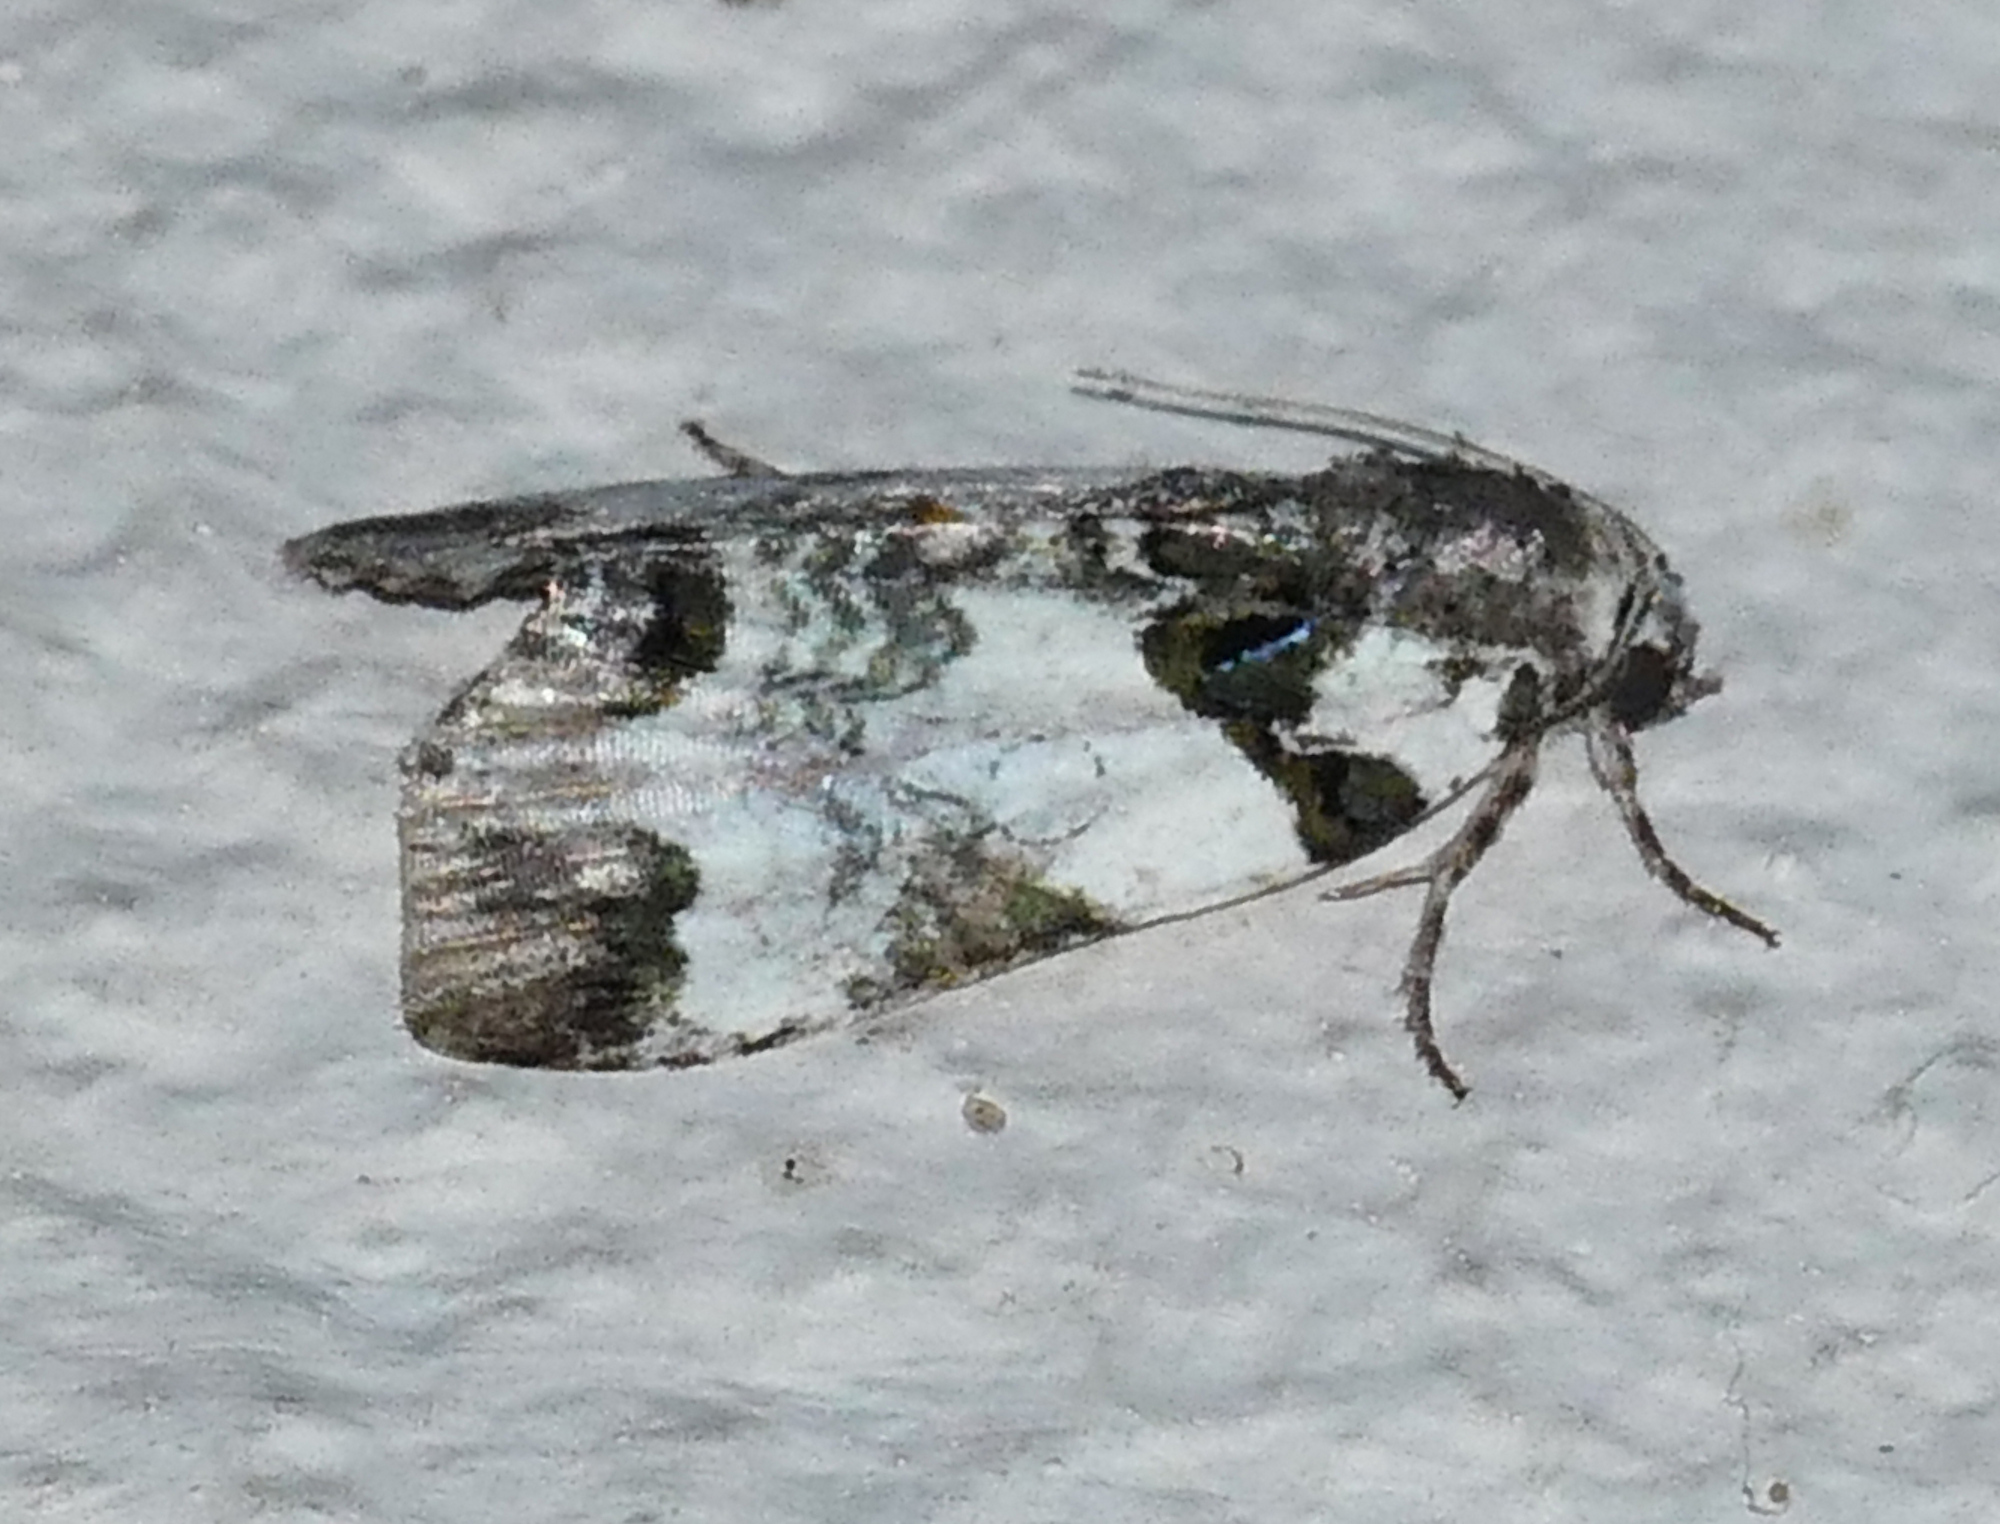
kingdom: Animalia
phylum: Arthropoda
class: Insecta
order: Lepidoptera
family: Noctuidae
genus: Cerma
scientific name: Cerma cerintha
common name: Tufted bird-dropping moth
